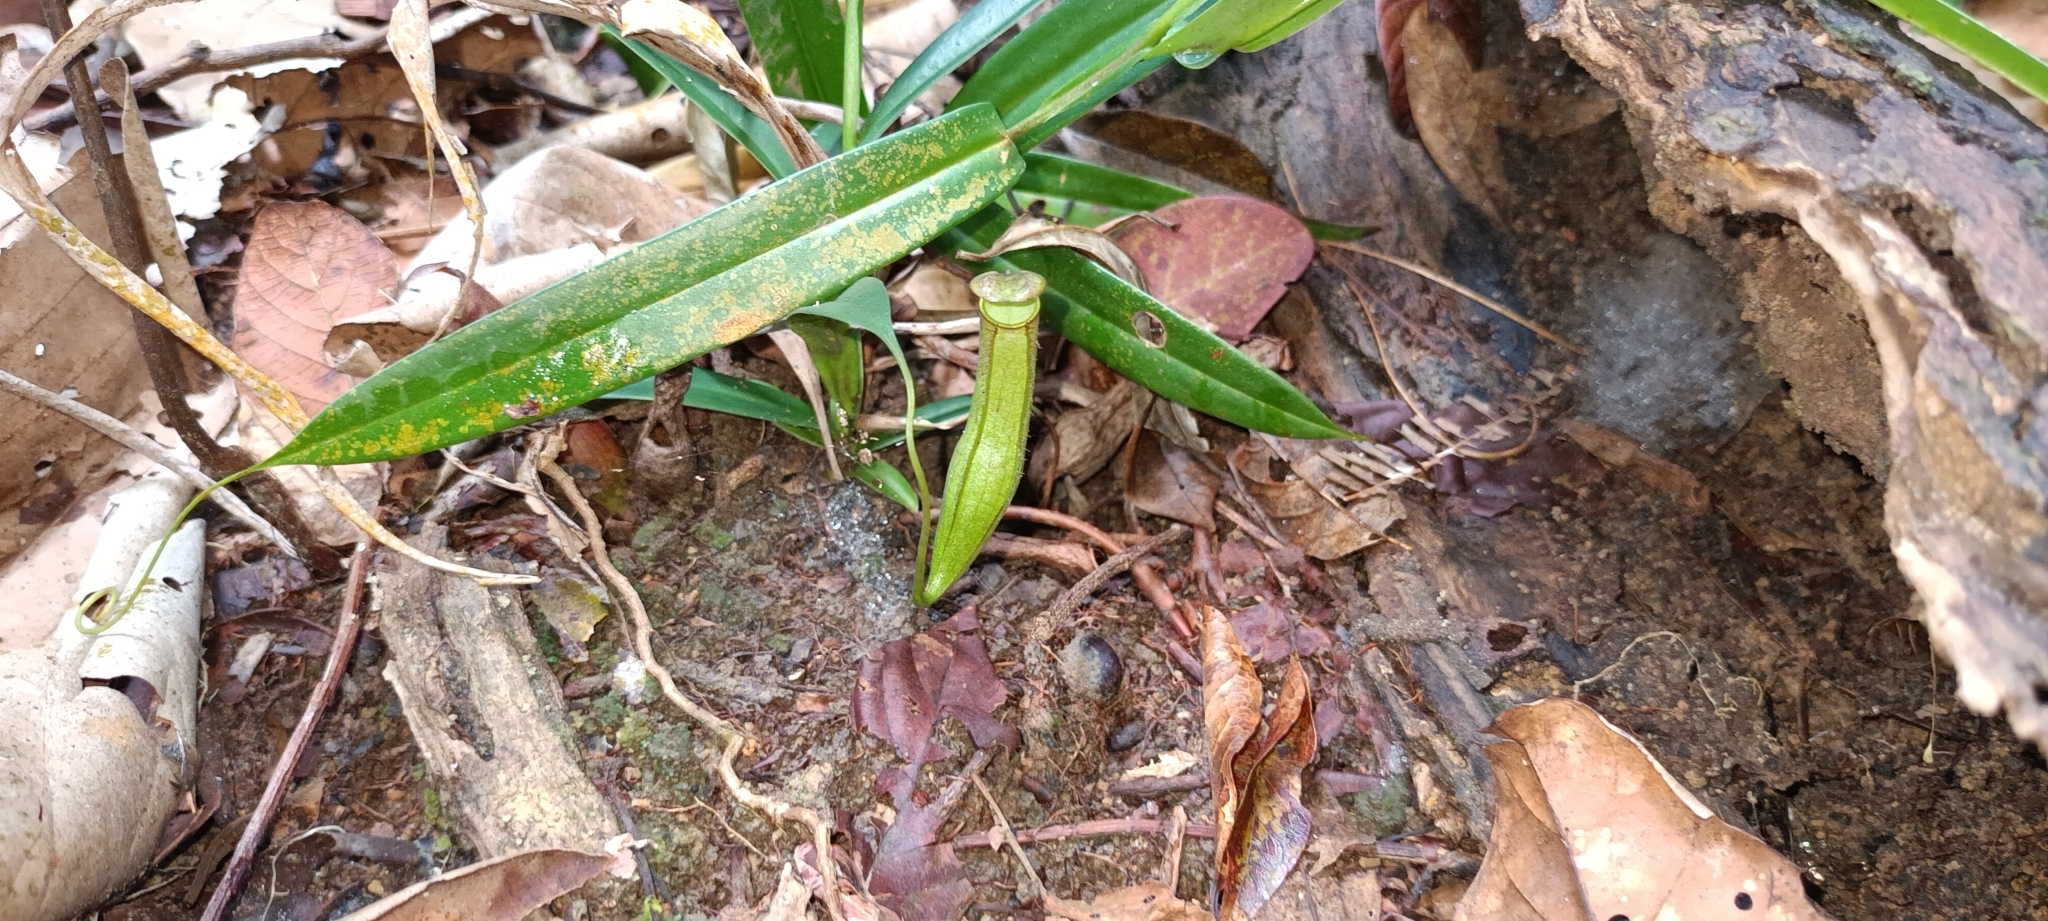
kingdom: Plantae
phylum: Tracheophyta
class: Magnoliopsida
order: Caryophyllales
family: Nepenthaceae
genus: Nepenthes
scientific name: Nepenthes gracilis
